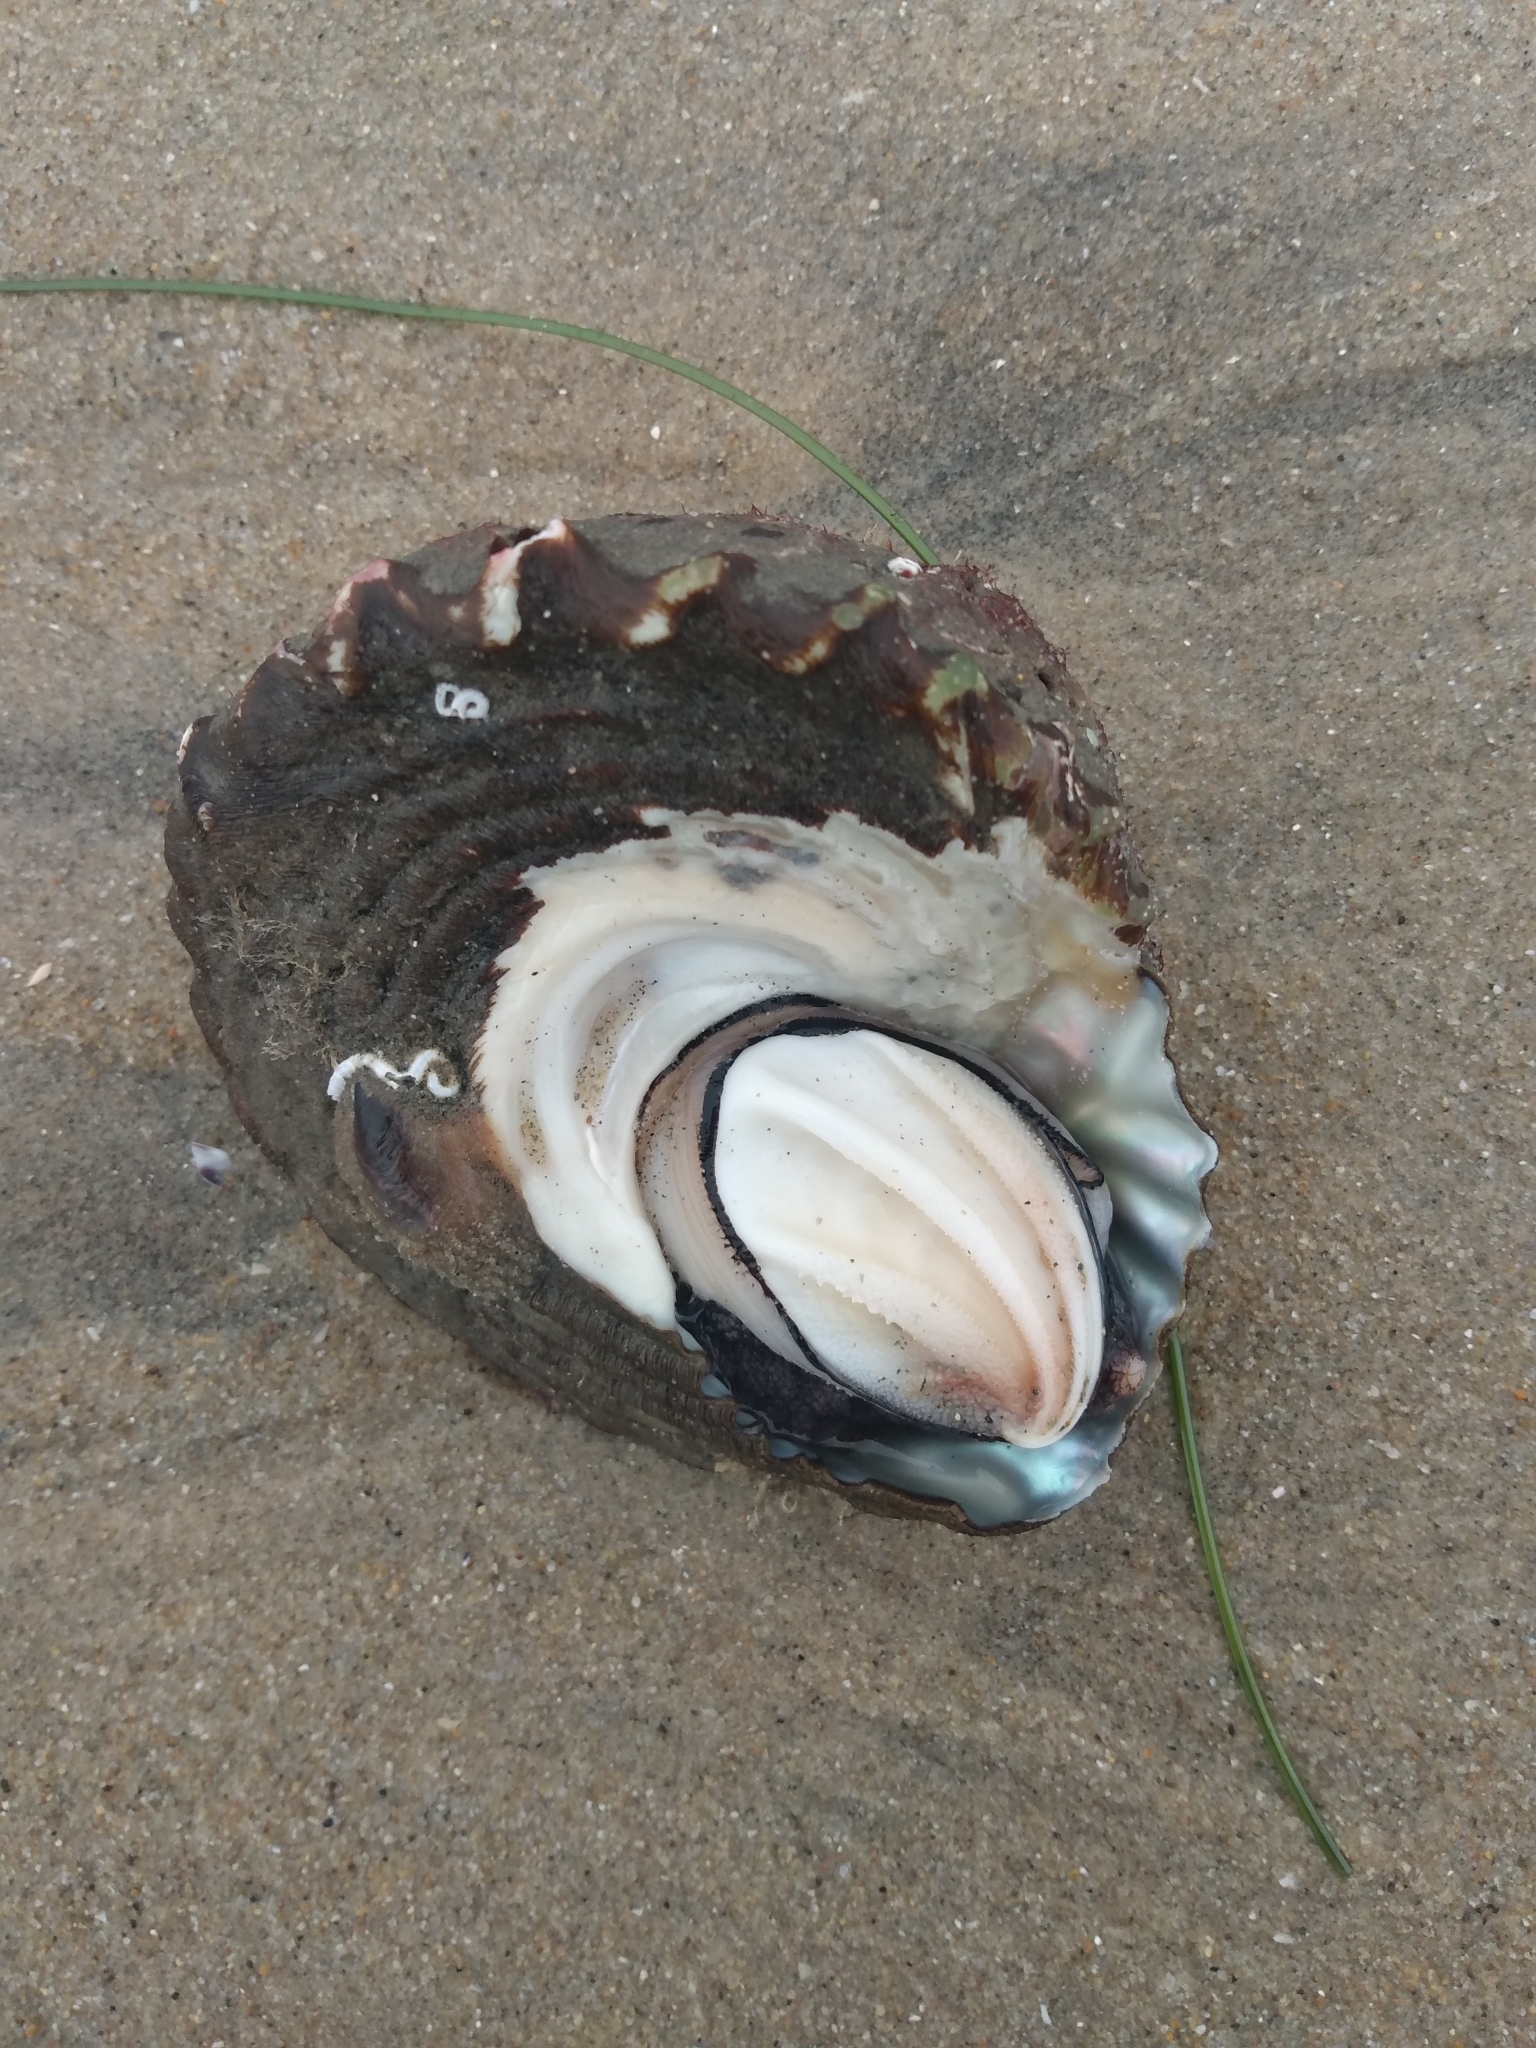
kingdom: Animalia
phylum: Mollusca
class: Gastropoda
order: Trochida
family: Turbinidae
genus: Megastraea
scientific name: Megastraea undosa
